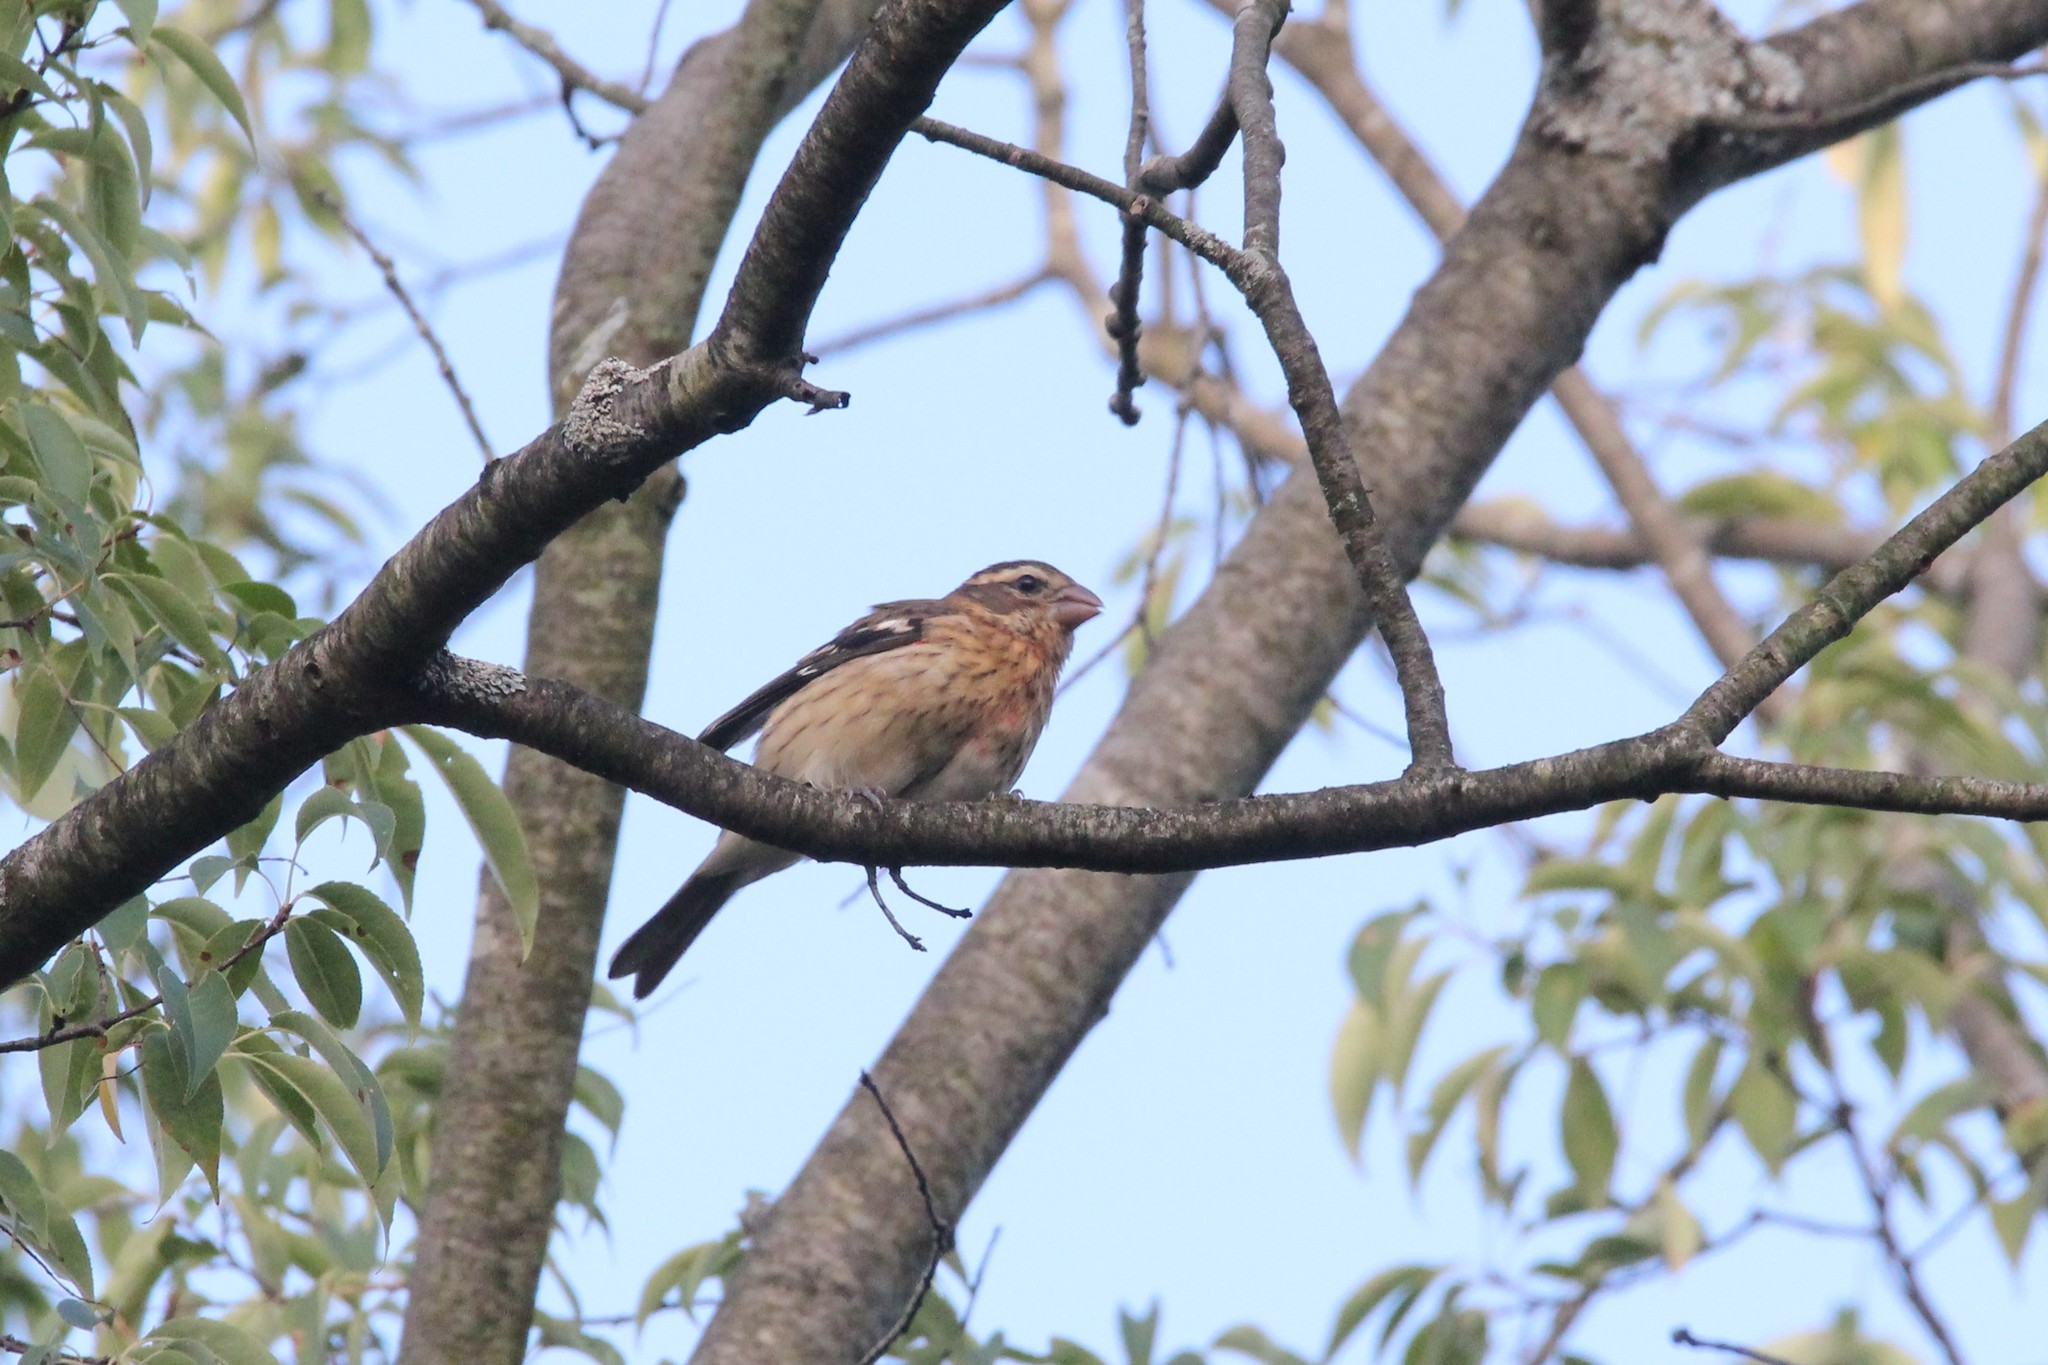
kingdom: Animalia
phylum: Chordata
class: Aves
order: Passeriformes
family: Cardinalidae
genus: Pheucticus
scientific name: Pheucticus ludovicianus
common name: Rose-breasted grosbeak
